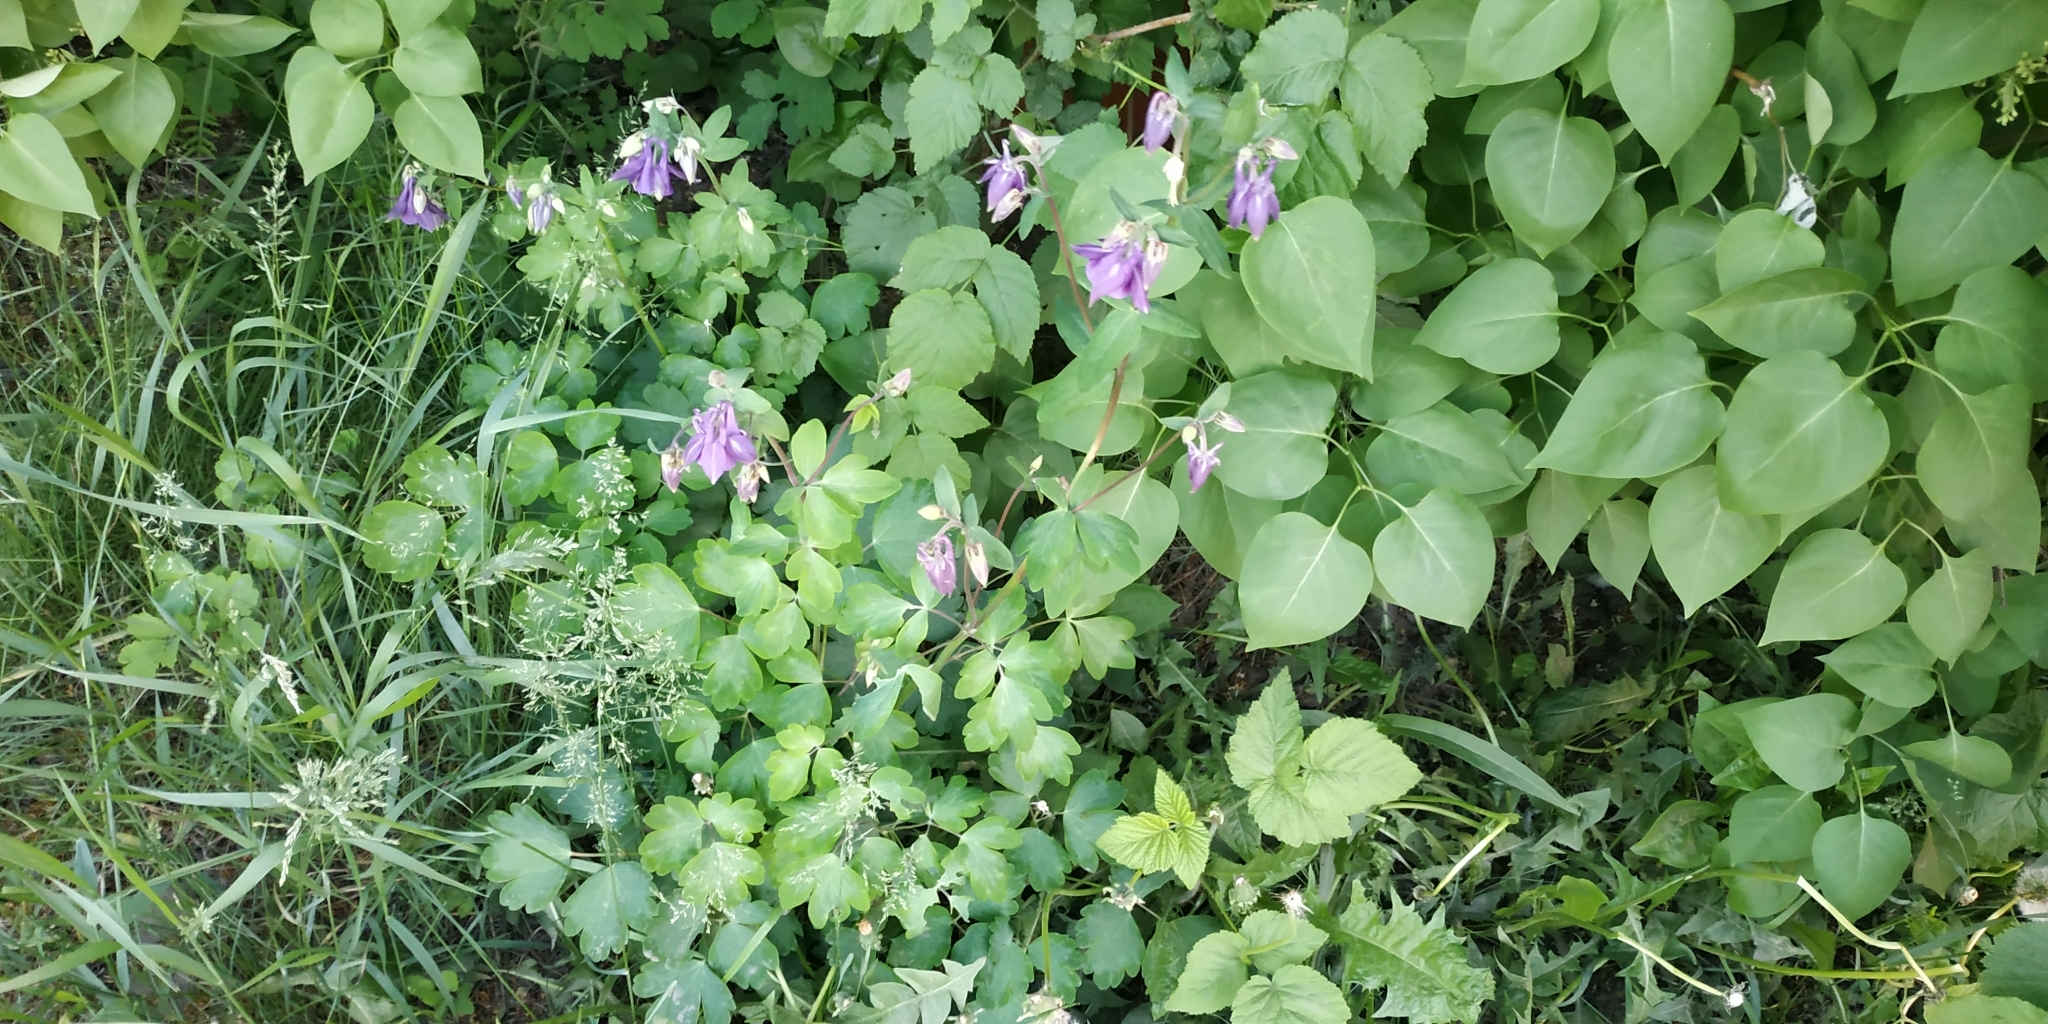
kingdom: Plantae
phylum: Tracheophyta
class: Magnoliopsida
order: Ranunculales
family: Ranunculaceae
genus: Aquilegia
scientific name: Aquilegia vulgaris
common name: Columbine
